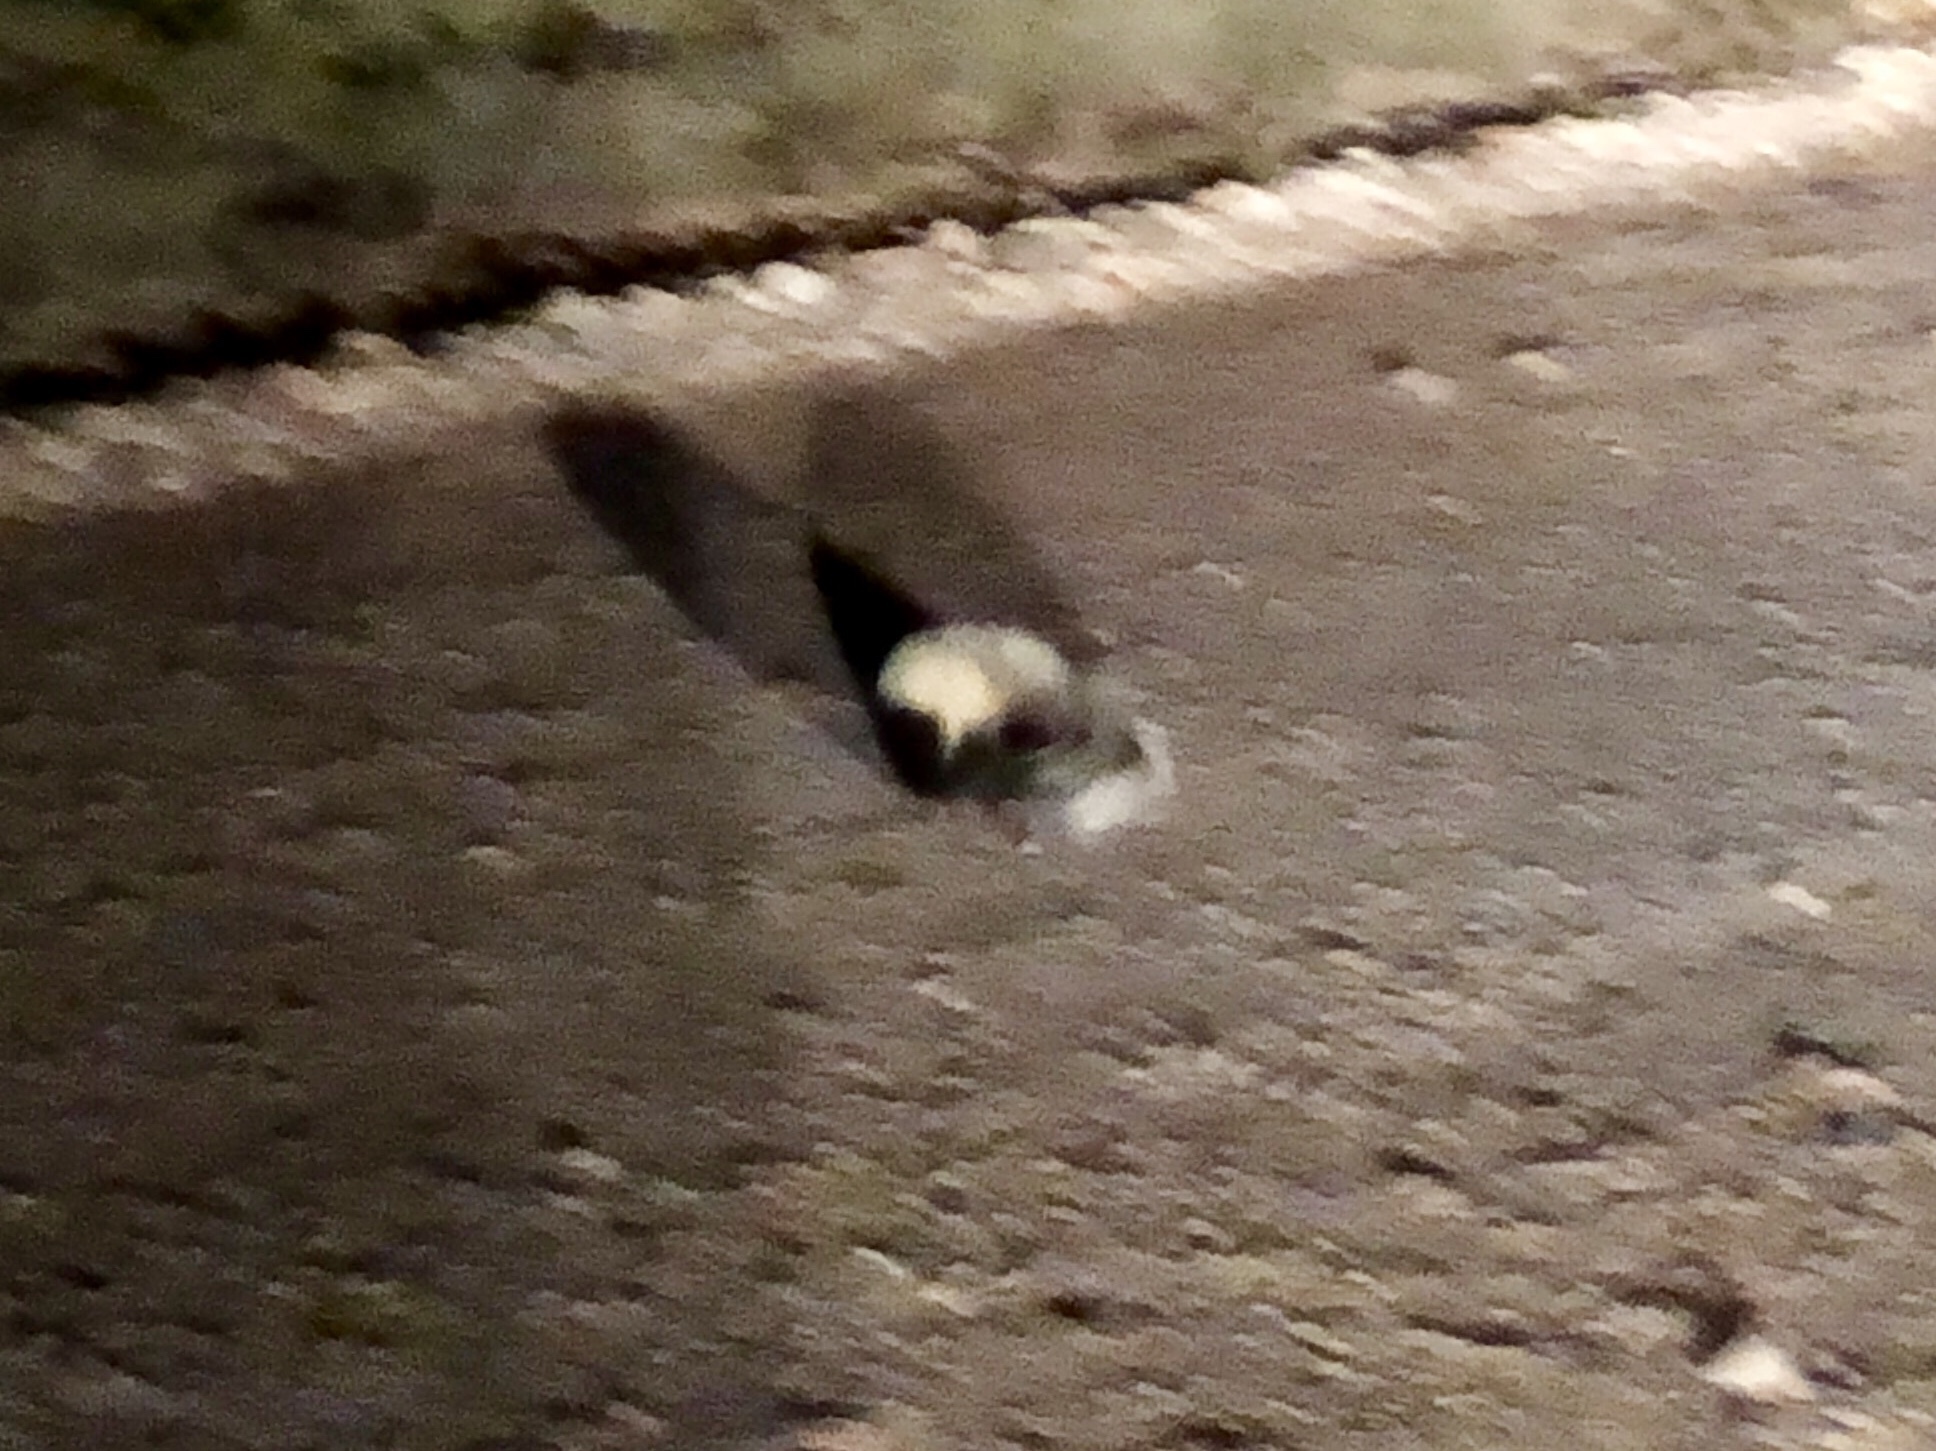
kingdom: Animalia
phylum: Chordata
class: Mammalia
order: Carnivora
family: Mephitidae
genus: Mephitis
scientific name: Mephitis mephitis
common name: Striped skunk
